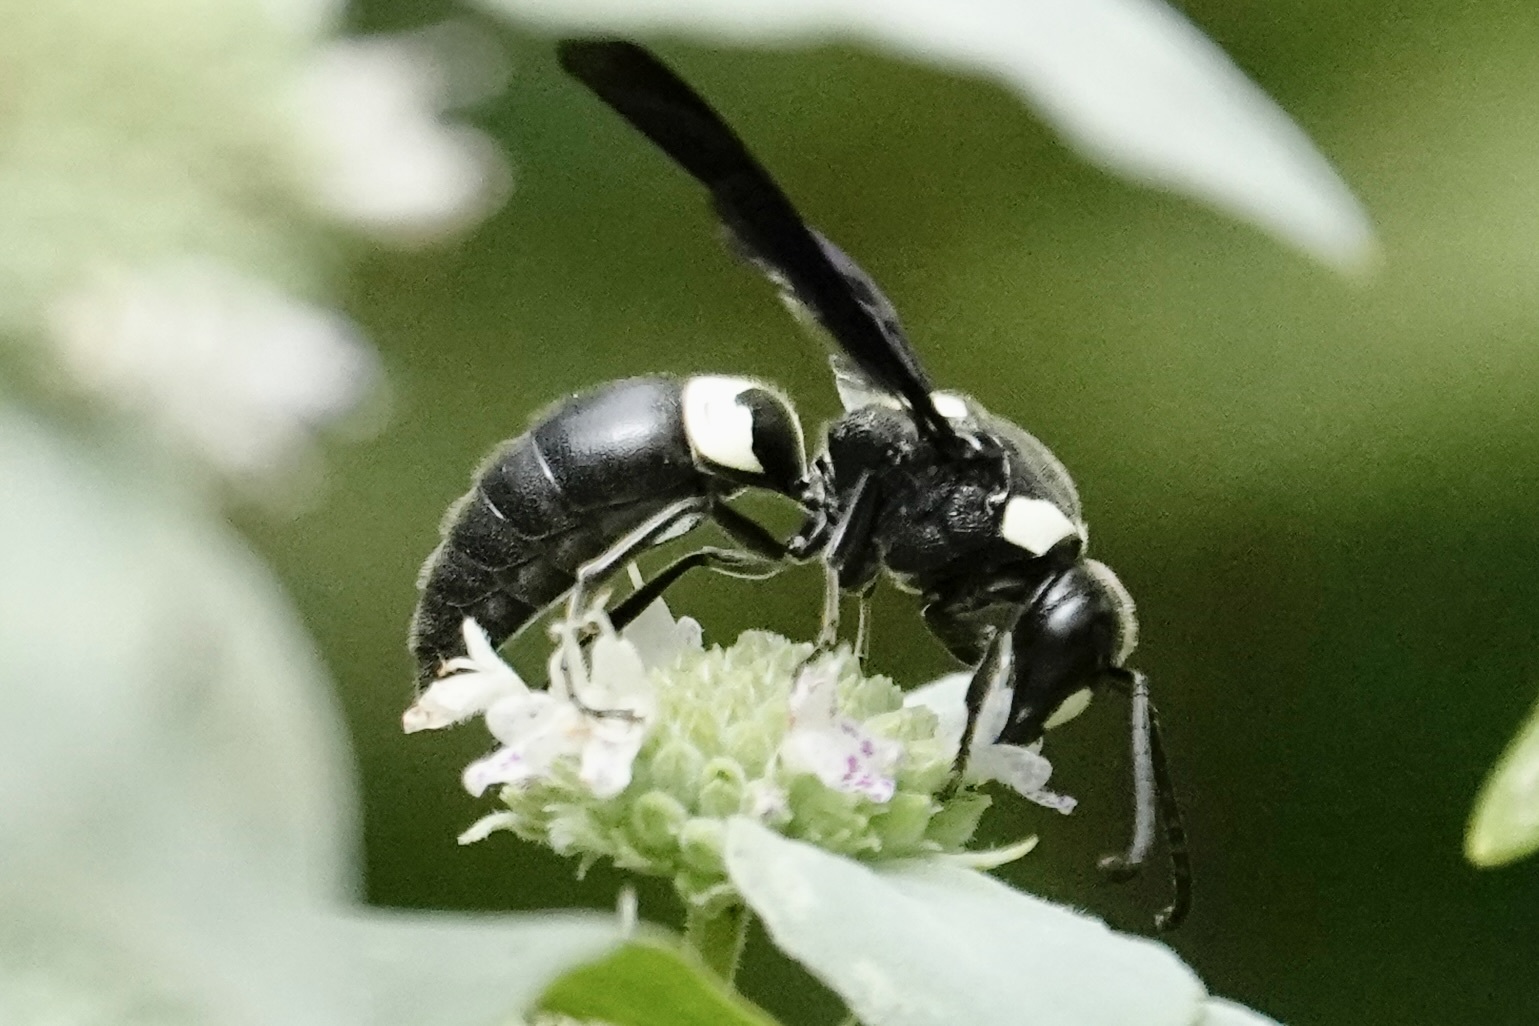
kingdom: Animalia
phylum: Arthropoda
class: Insecta
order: Hymenoptera
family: Eumenidae
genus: Monobia
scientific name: Monobia quadridens
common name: Four-toothed mason wasp
